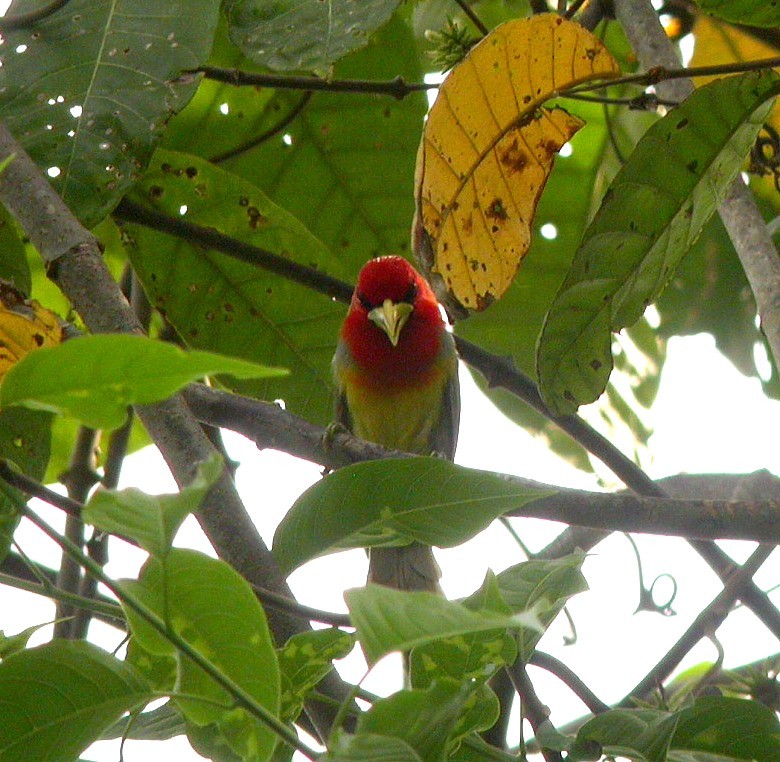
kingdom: Animalia
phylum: Chordata
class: Aves
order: Piciformes
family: Capitonidae
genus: Eubucco
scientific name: Eubucco tucinkae
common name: Scarlet-hooded barbet
